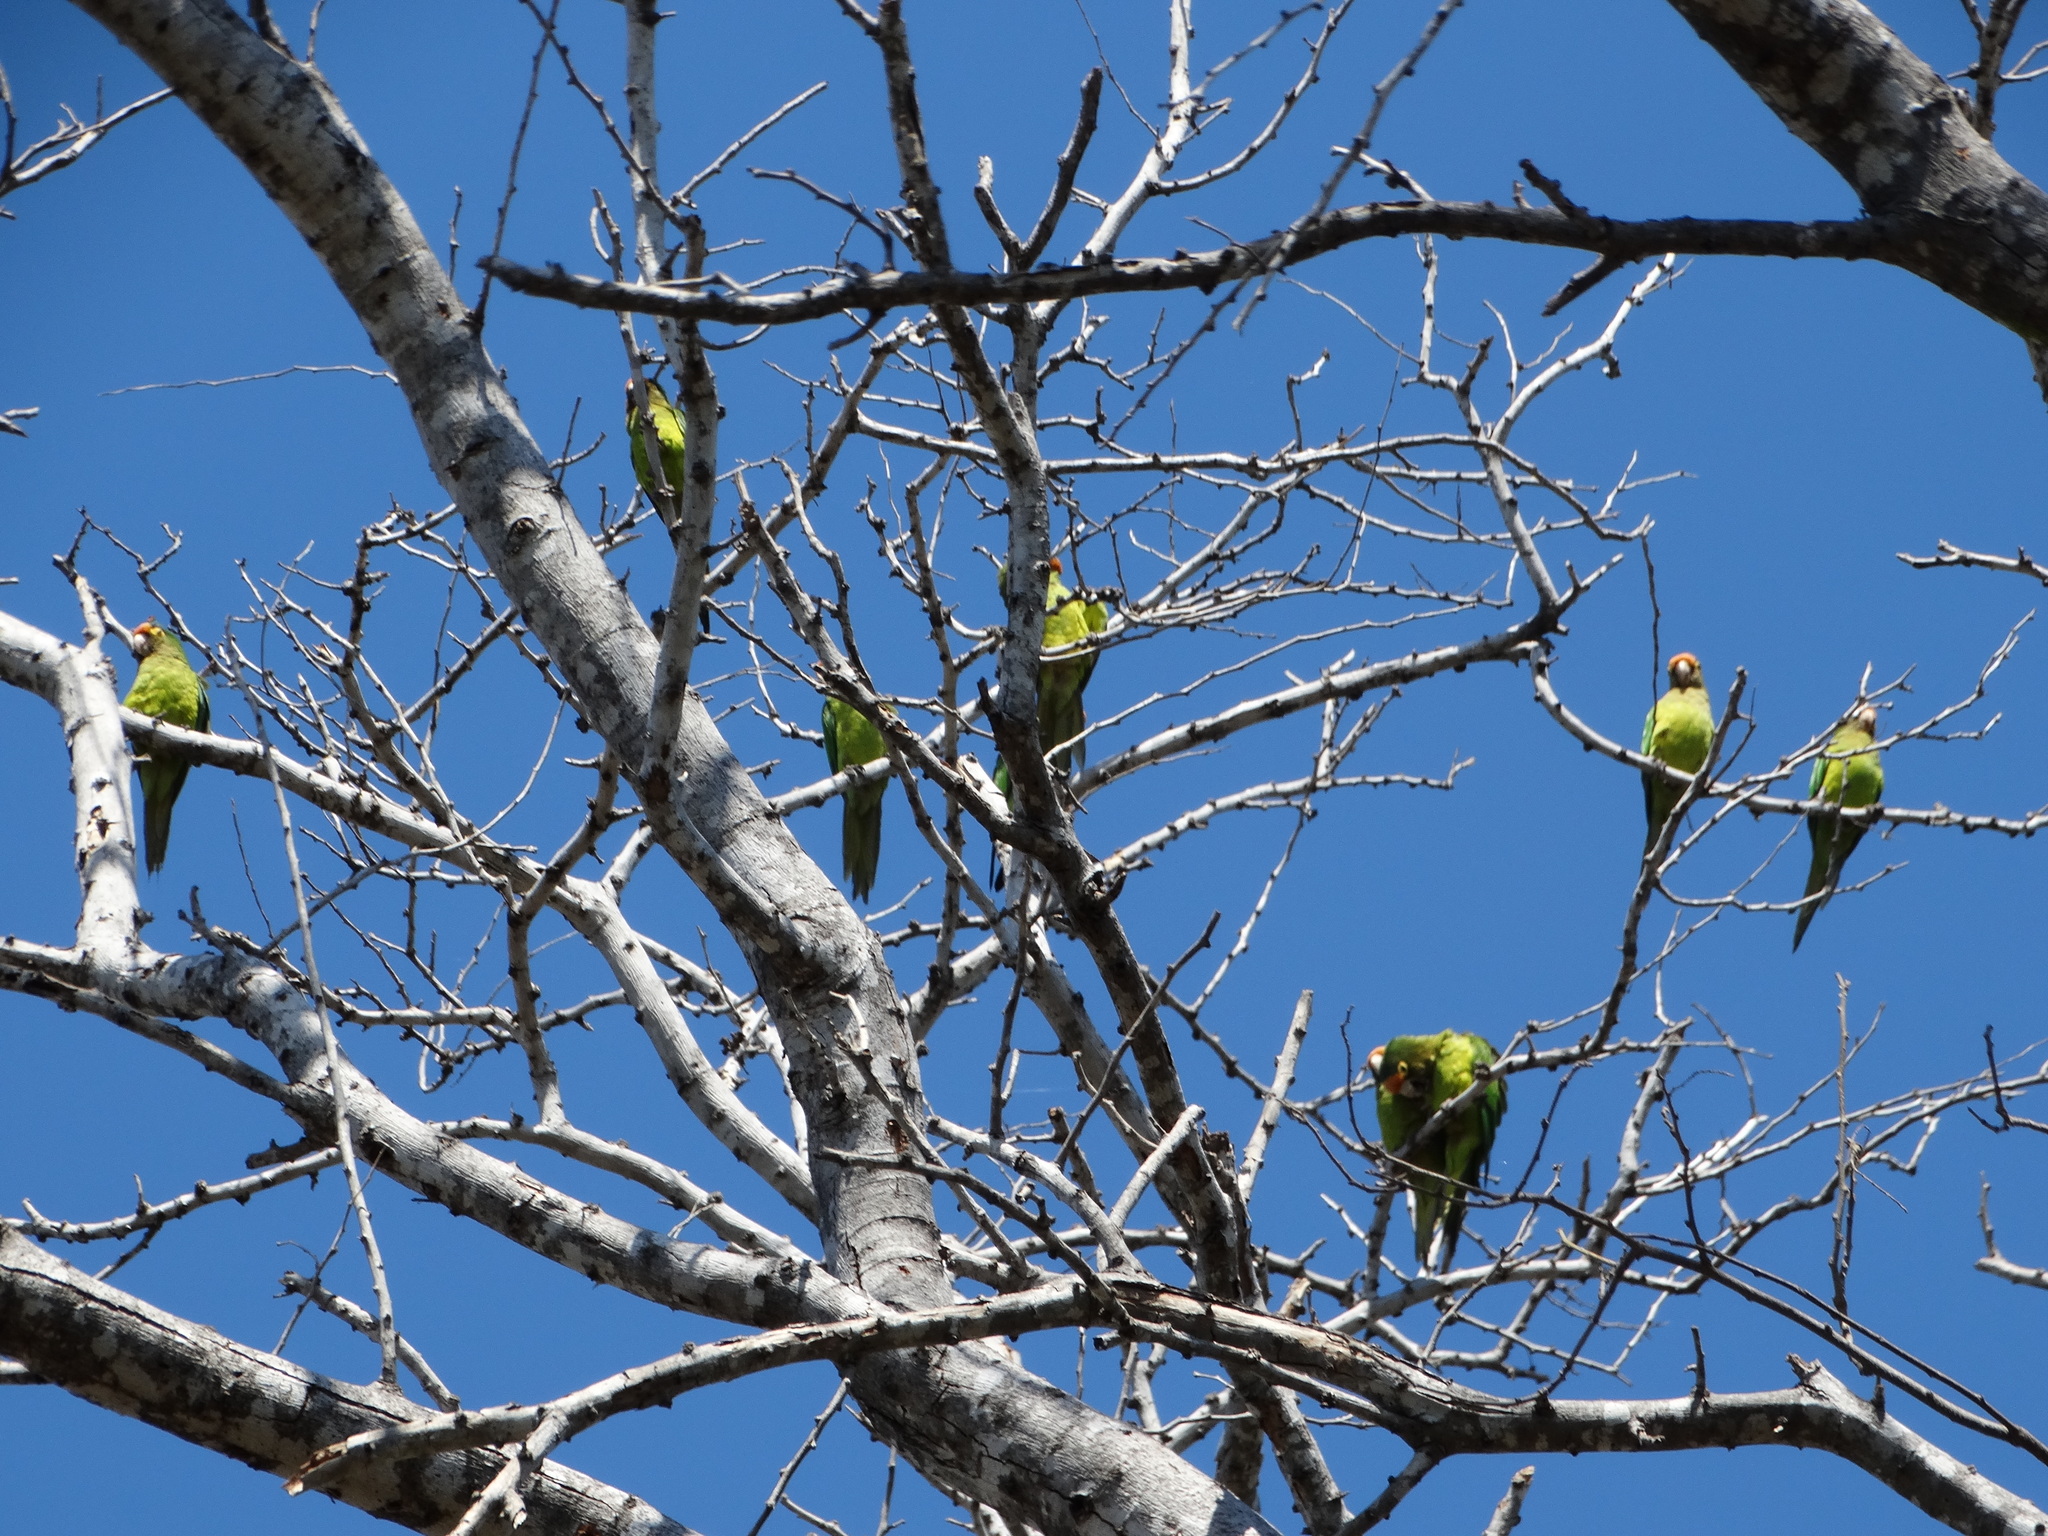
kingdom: Animalia
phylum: Chordata
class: Aves
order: Psittaciformes
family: Psittacidae
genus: Aratinga
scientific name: Aratinga canicularis
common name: Orange-fronted parakeet
